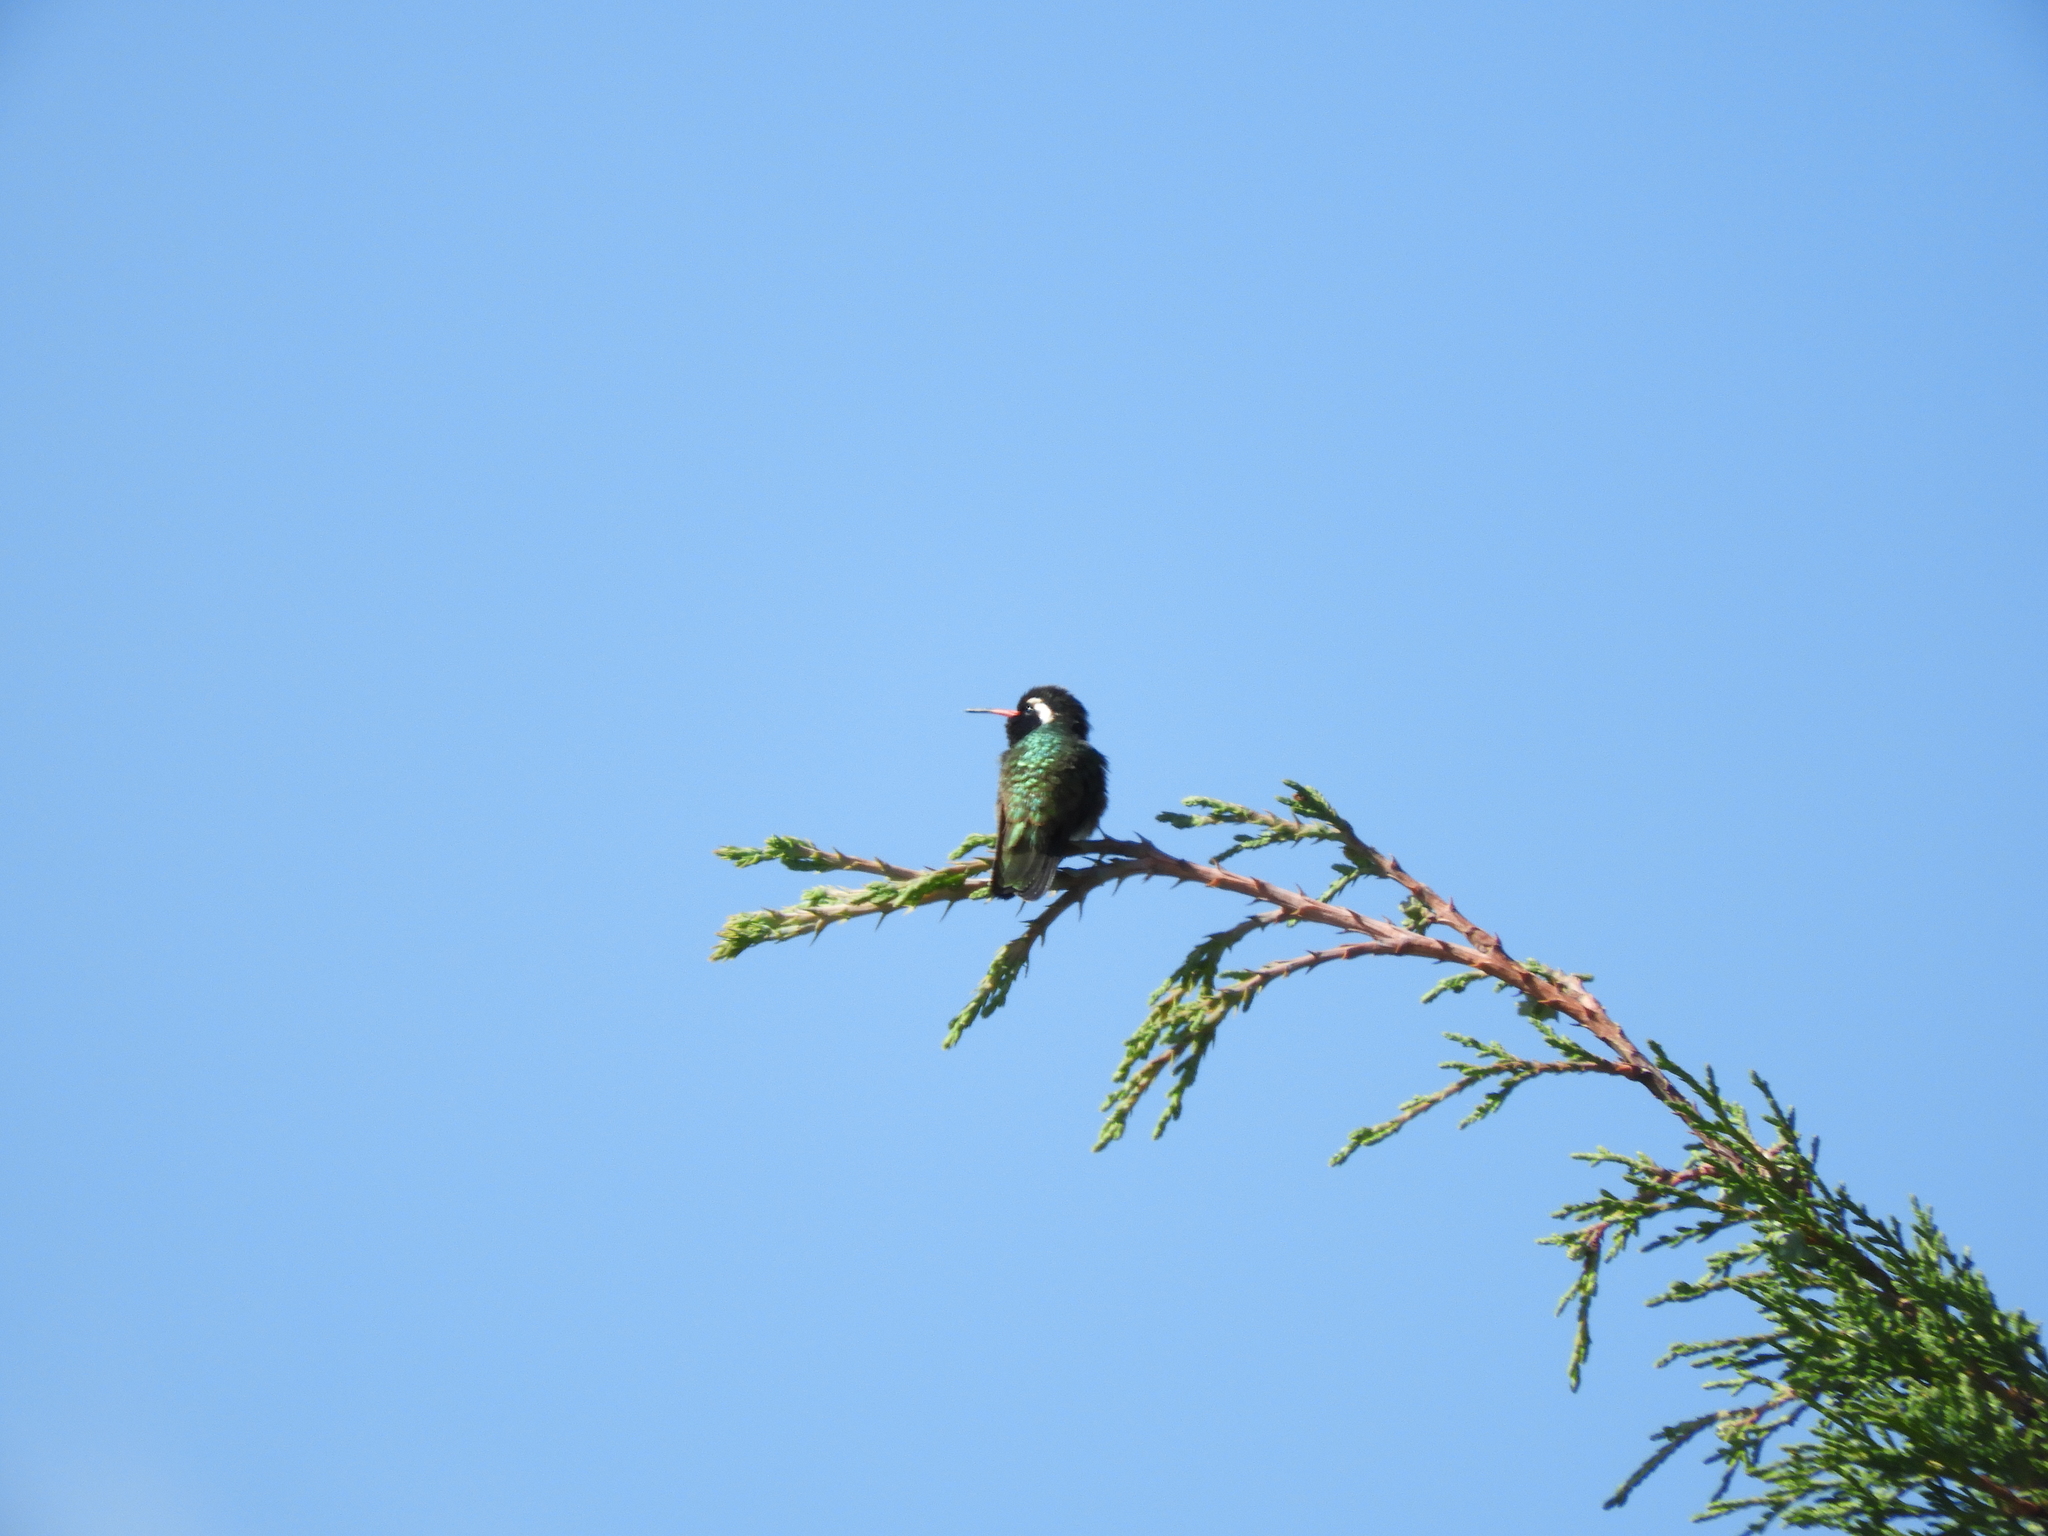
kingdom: Animalia
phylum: Chordata
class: Aves
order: Apodiformes
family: Trochilidae
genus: Basilinna
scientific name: Basilinna leucotis
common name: White-eared hummingbird
